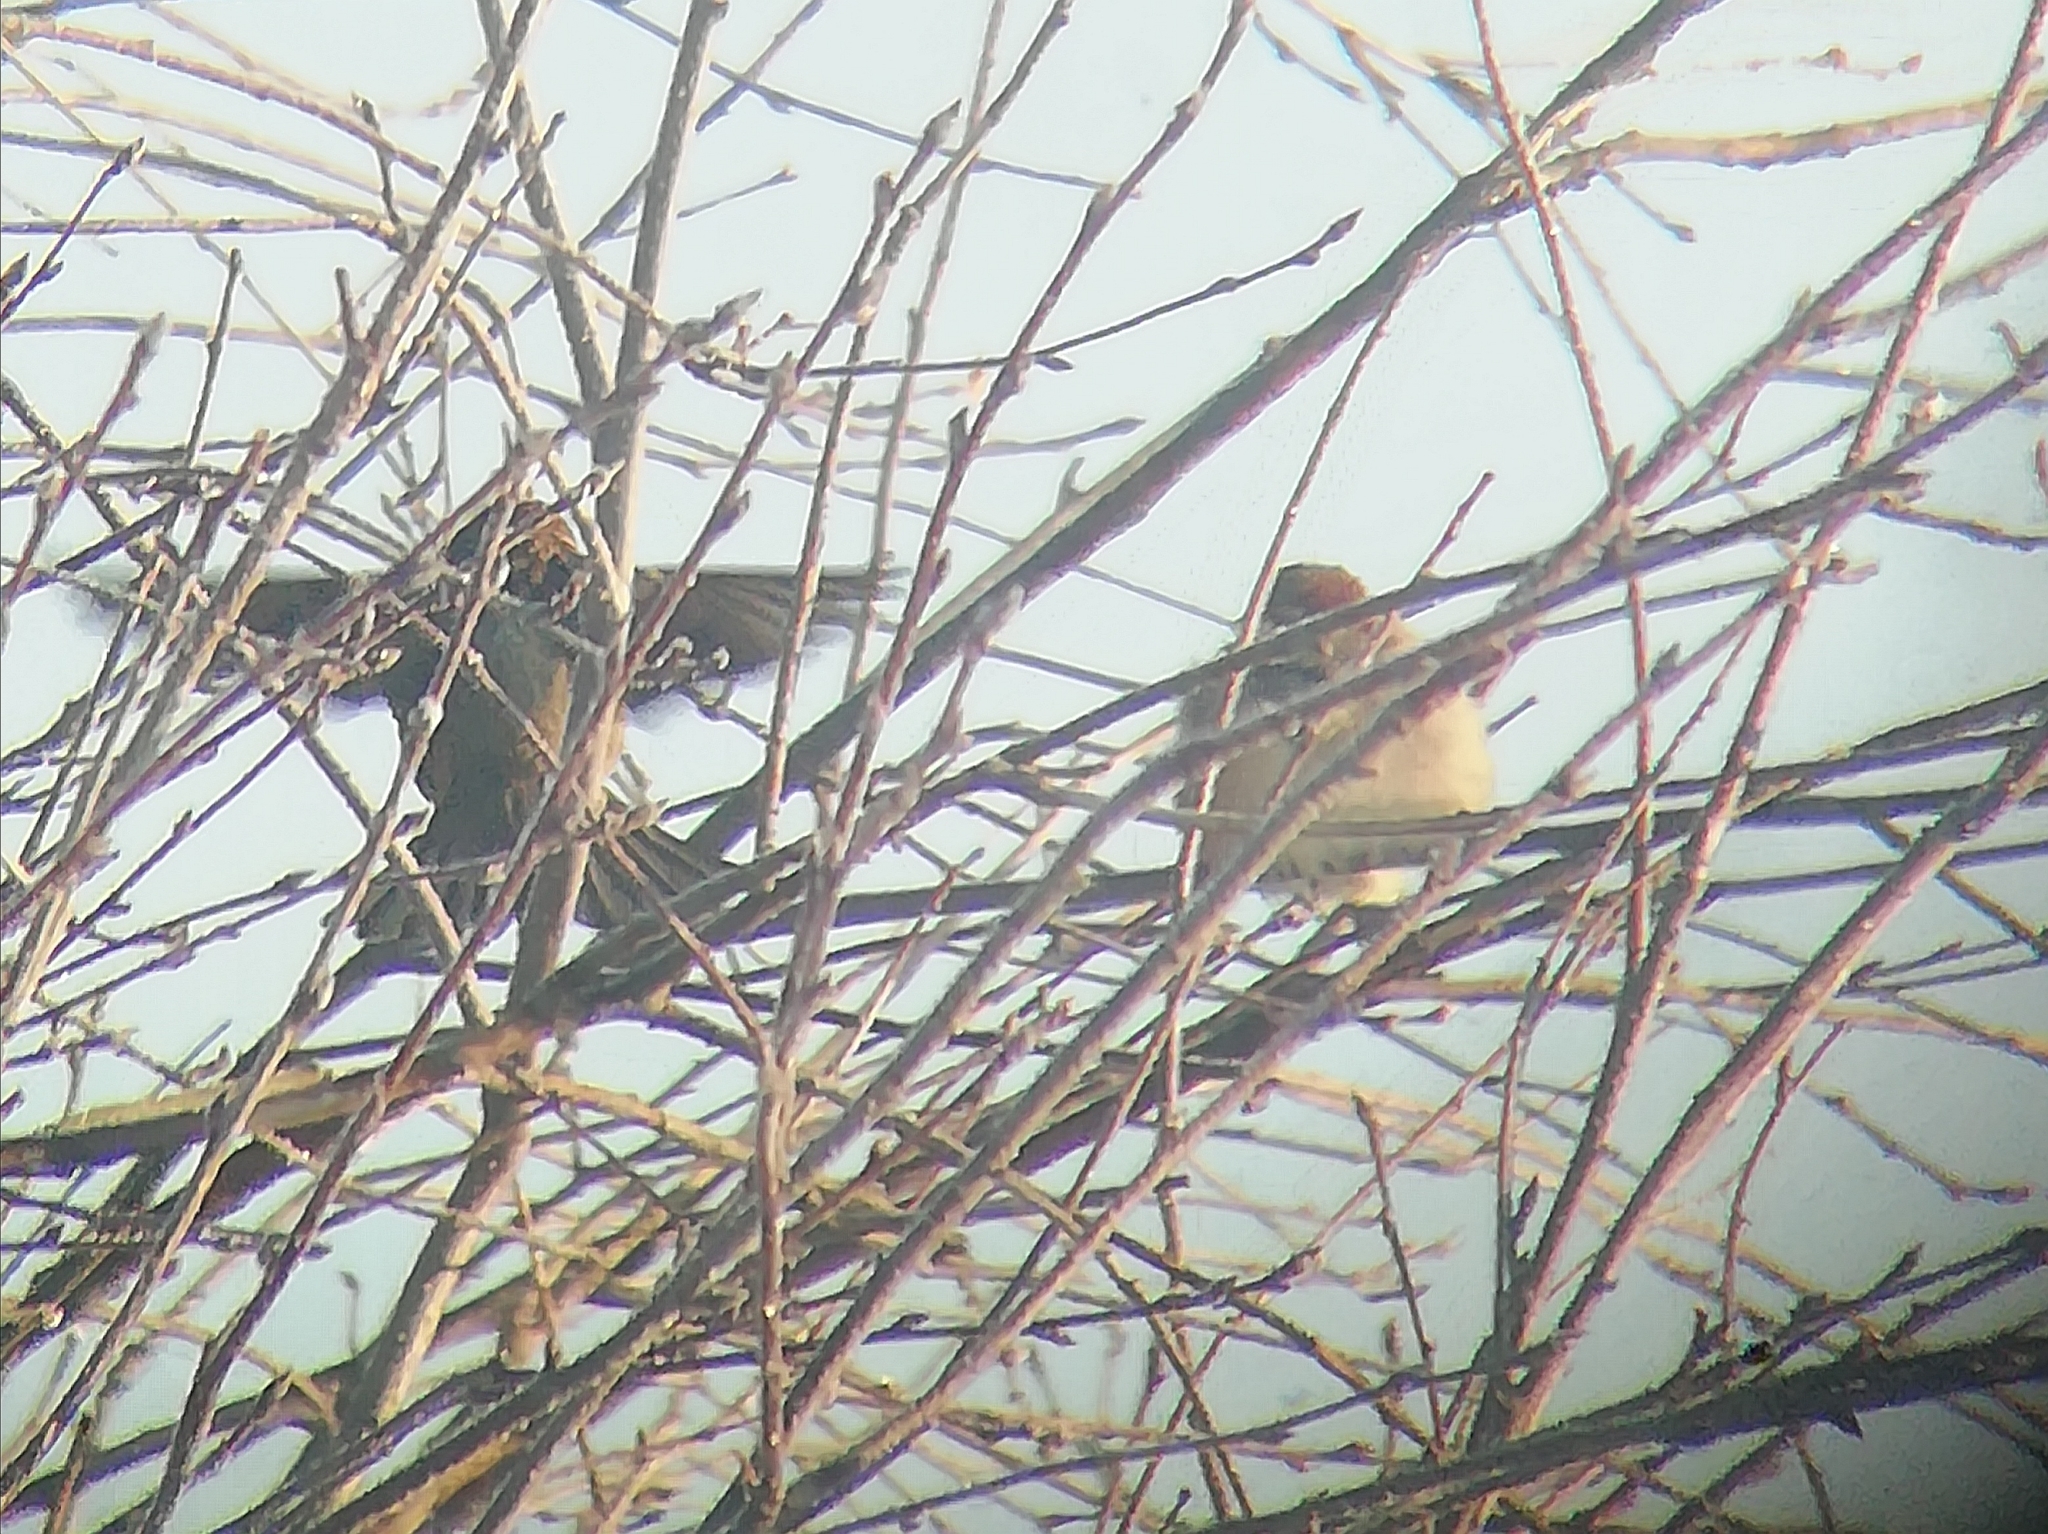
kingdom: Animalia
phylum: Chordata
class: Aves
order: Passeriformes
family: Passeridae
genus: Passer
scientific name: Passer domesticus
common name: House sparrow
